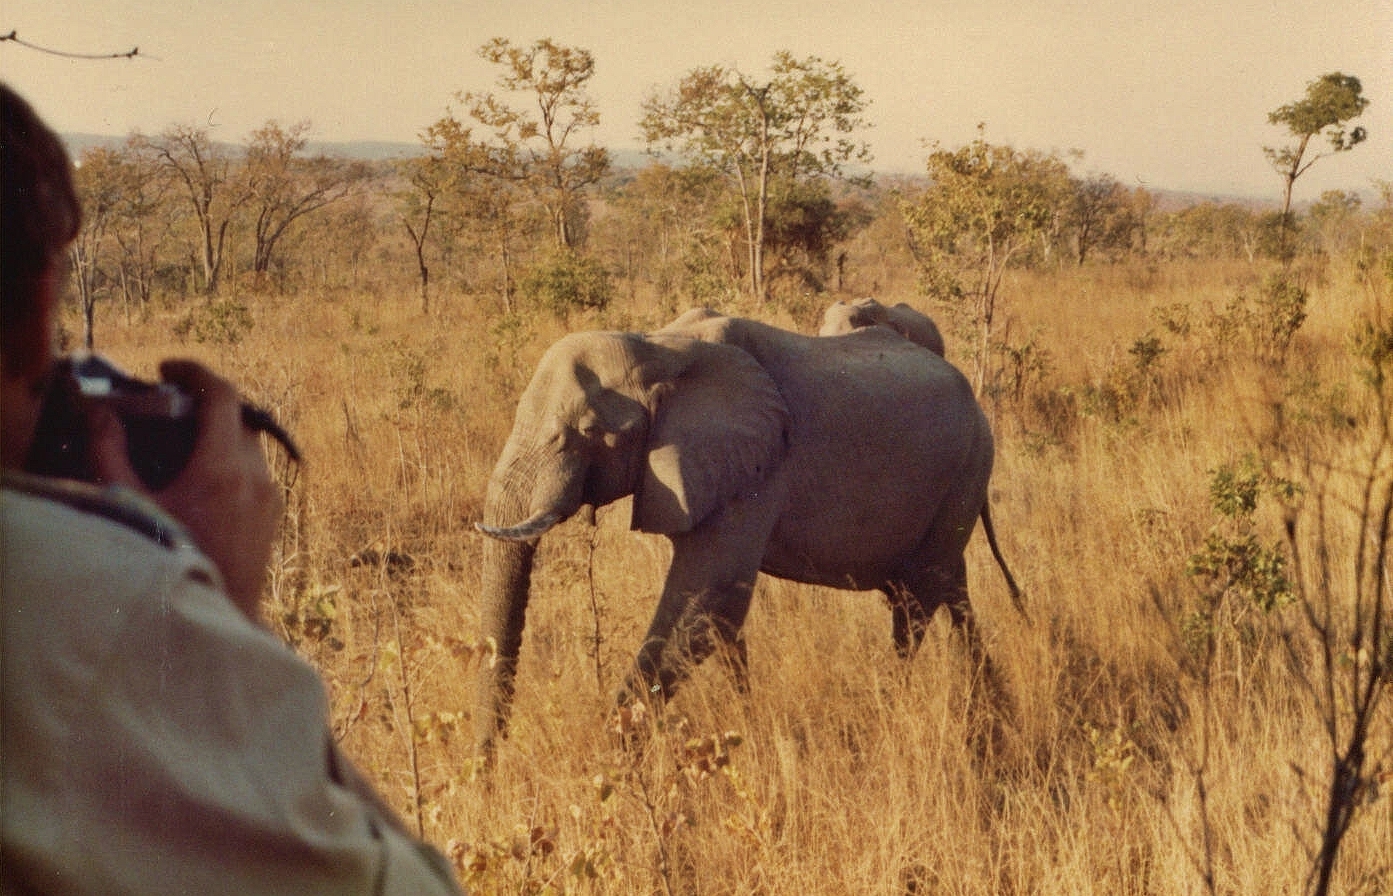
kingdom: Animalia
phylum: Chordata
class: Mammalia
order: Proboscidea
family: Elephantidae
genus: Loxodonta
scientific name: Loxodonta africana
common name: African elephant
